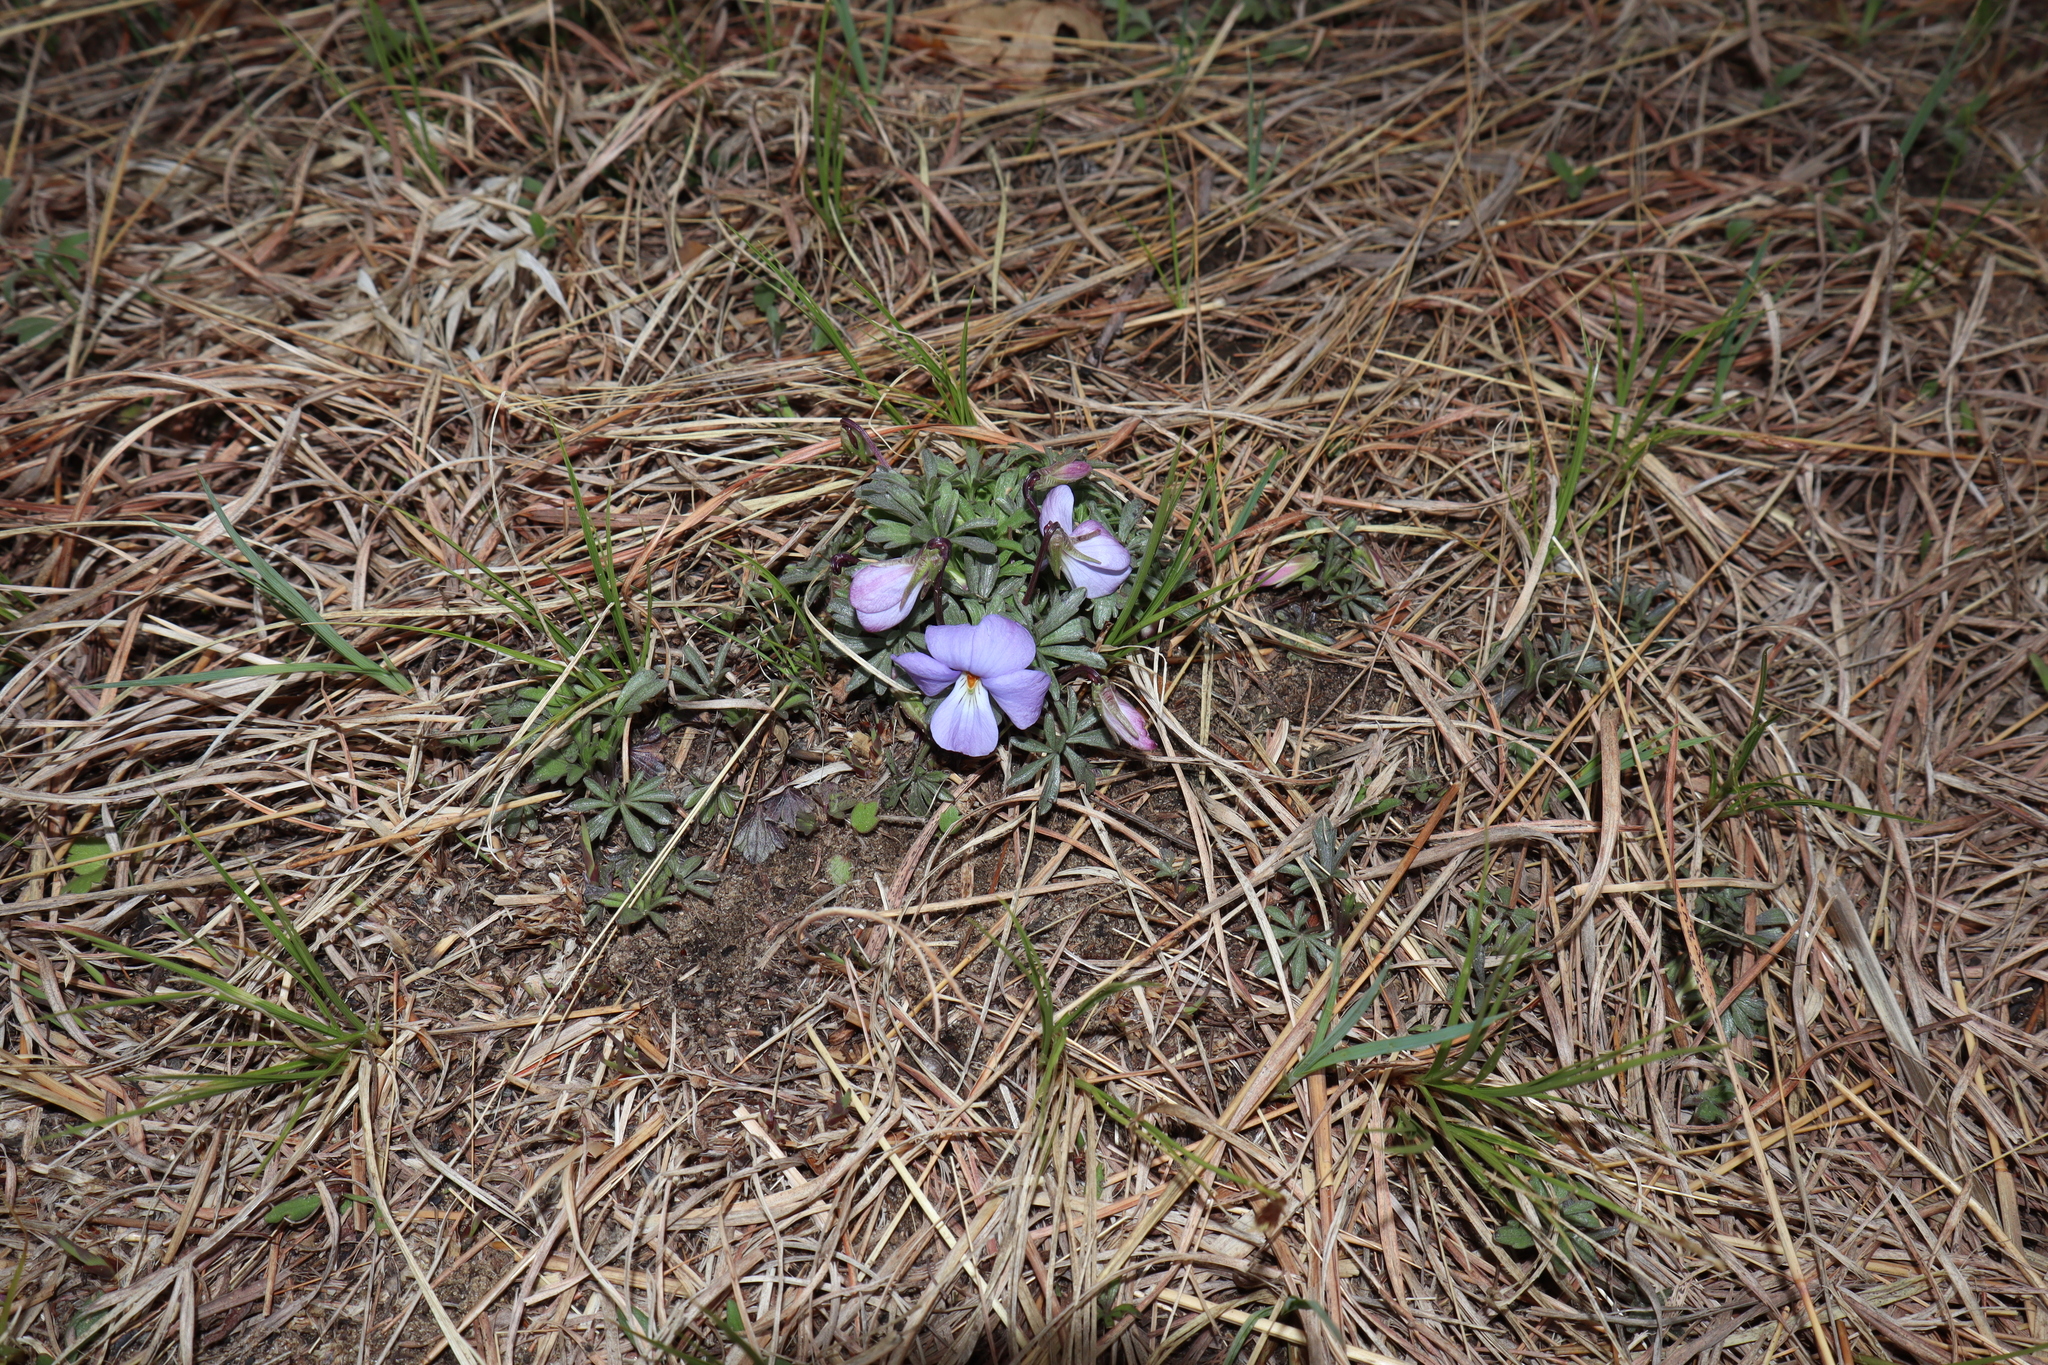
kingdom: Plantae
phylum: Tracheophyta
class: Magnoliopsida
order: Malpighiales
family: Violaceae
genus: Viola
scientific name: Viola pedata
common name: Pansy violet
